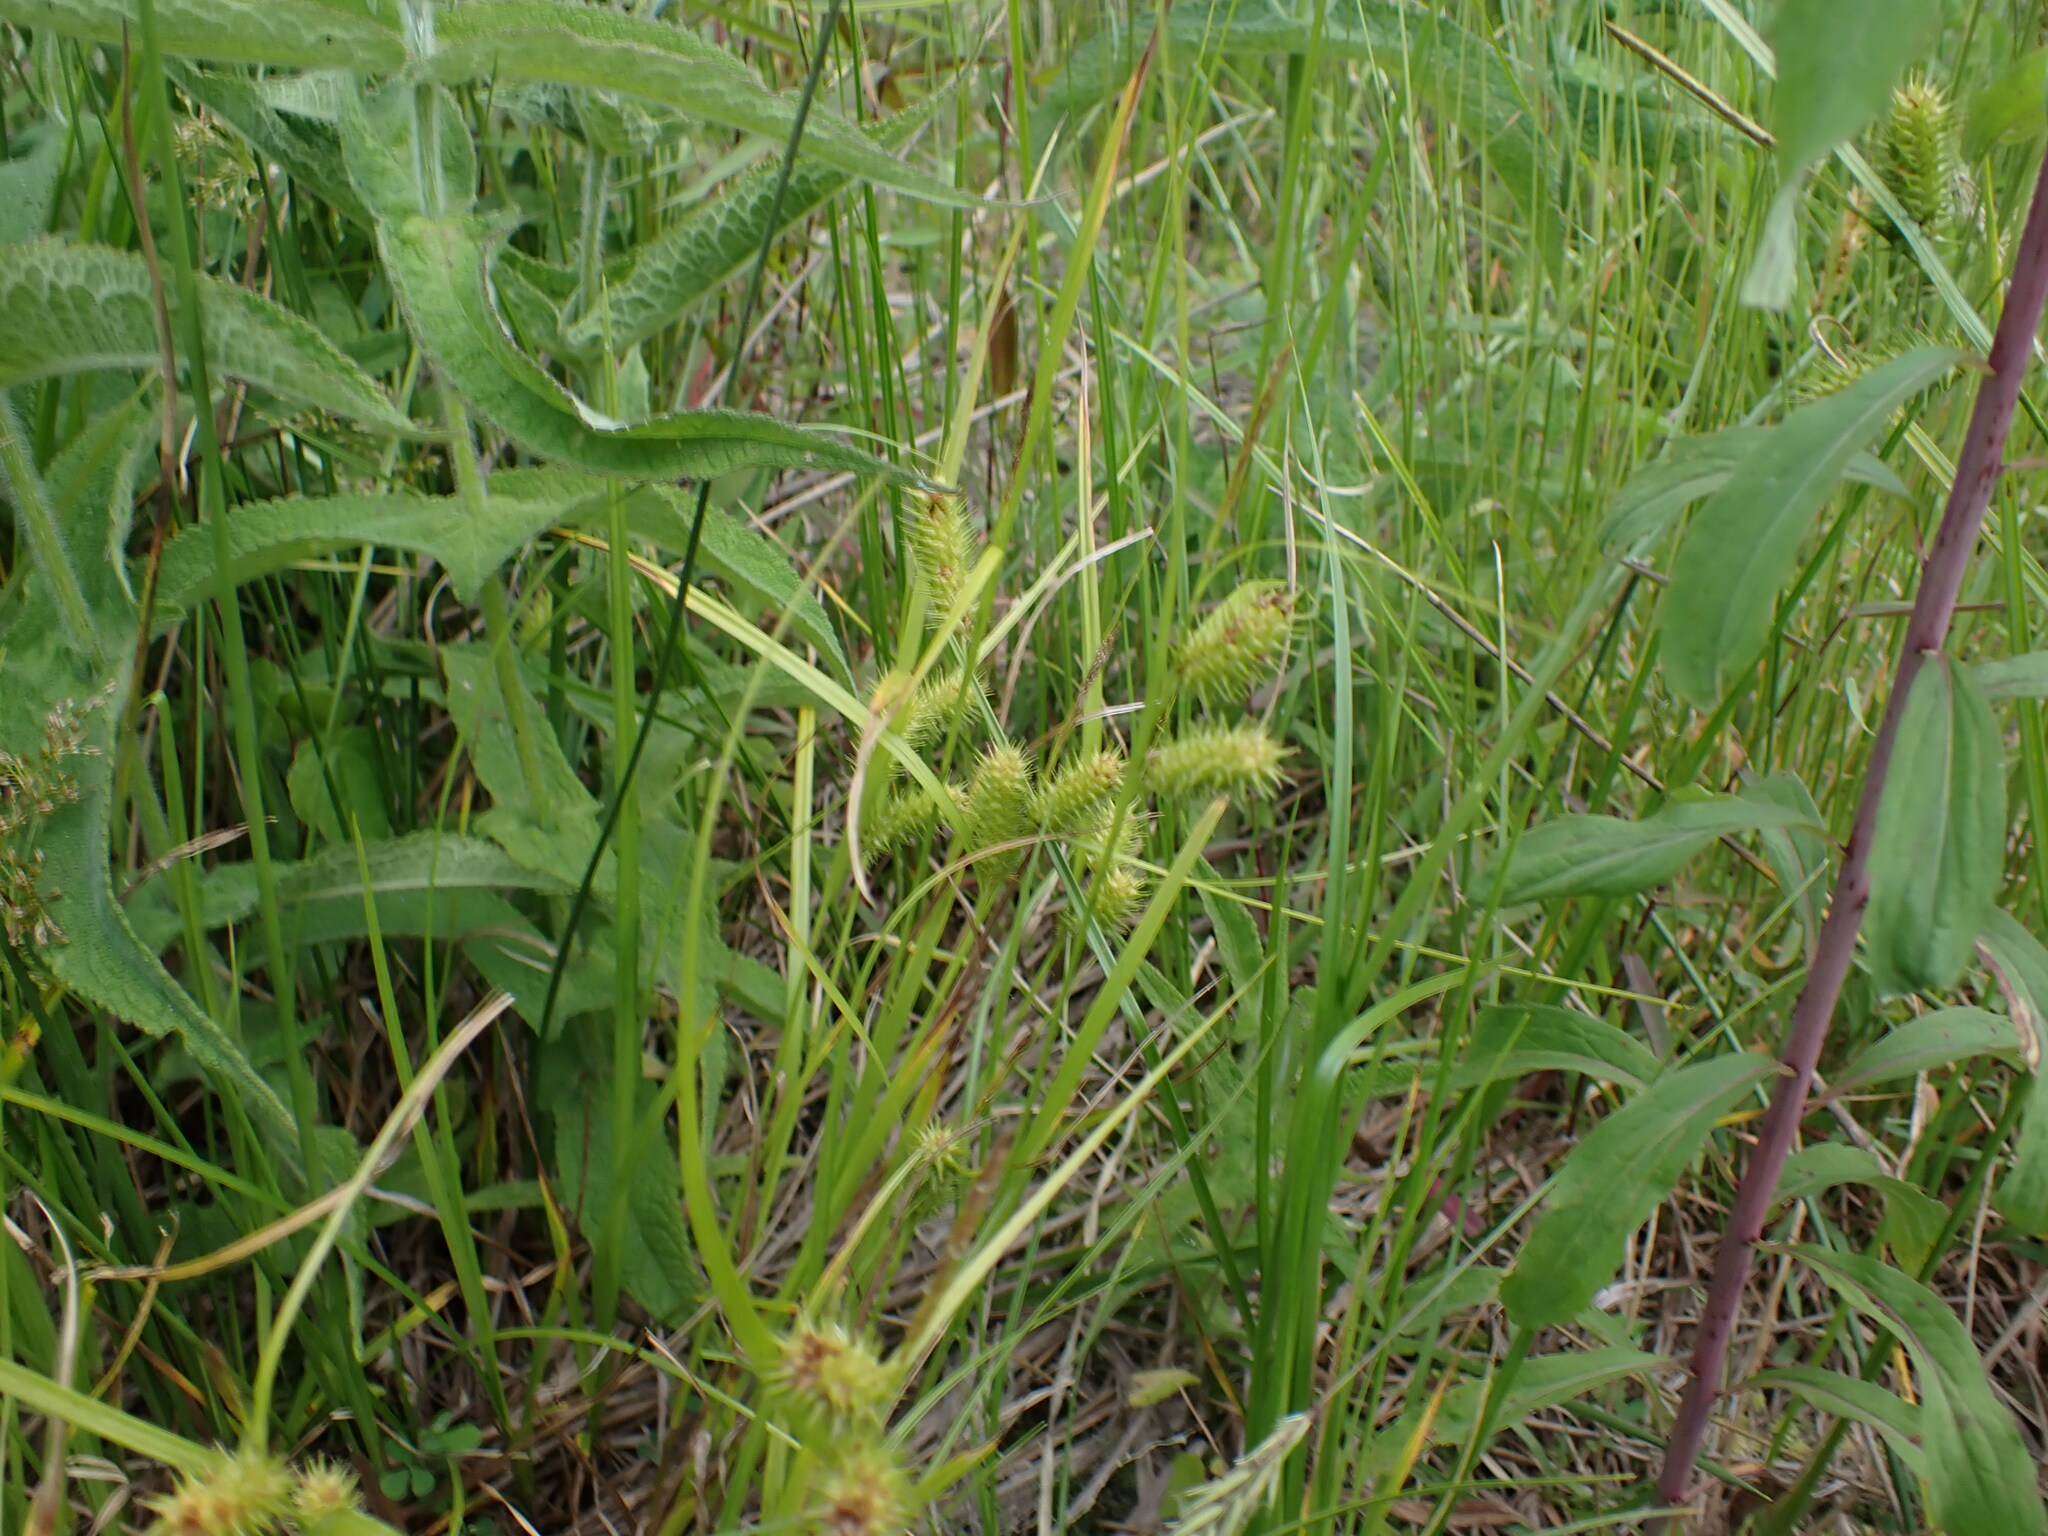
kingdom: Plantae
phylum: Tracheophyta
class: Liliopsida
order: Poales
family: Cyperaceae
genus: Carex
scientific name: Carex lurida
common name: Sallow sedge
